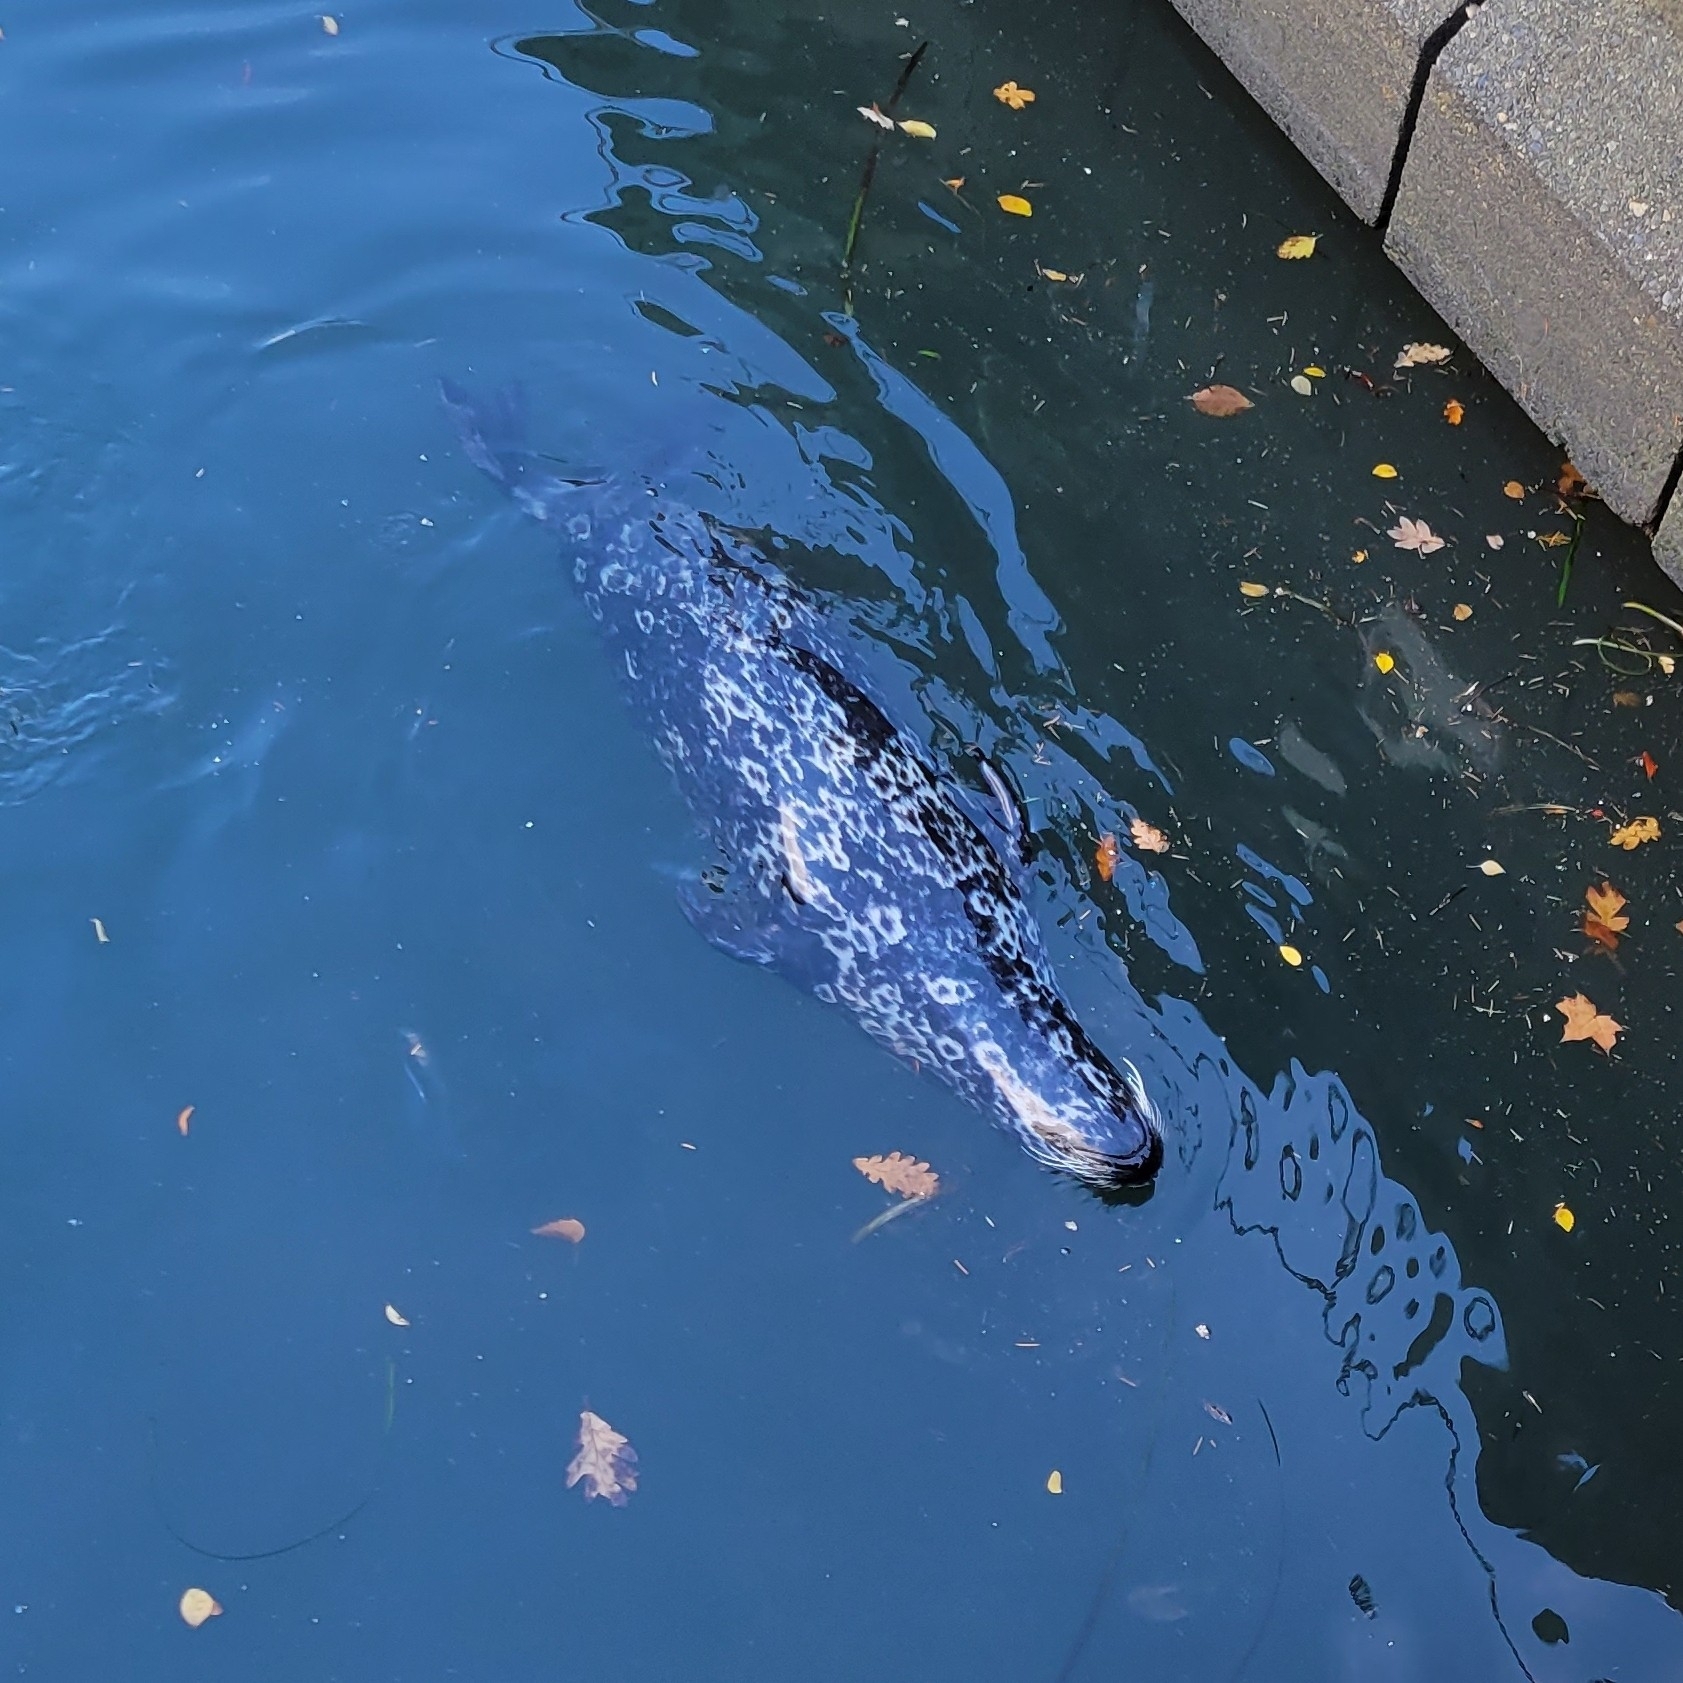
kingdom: Animalia
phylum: Chordata
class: Mammalia
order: Carnivora
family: Phocidae
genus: Phoca
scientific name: Phoca vitulina
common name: Harbor seal
